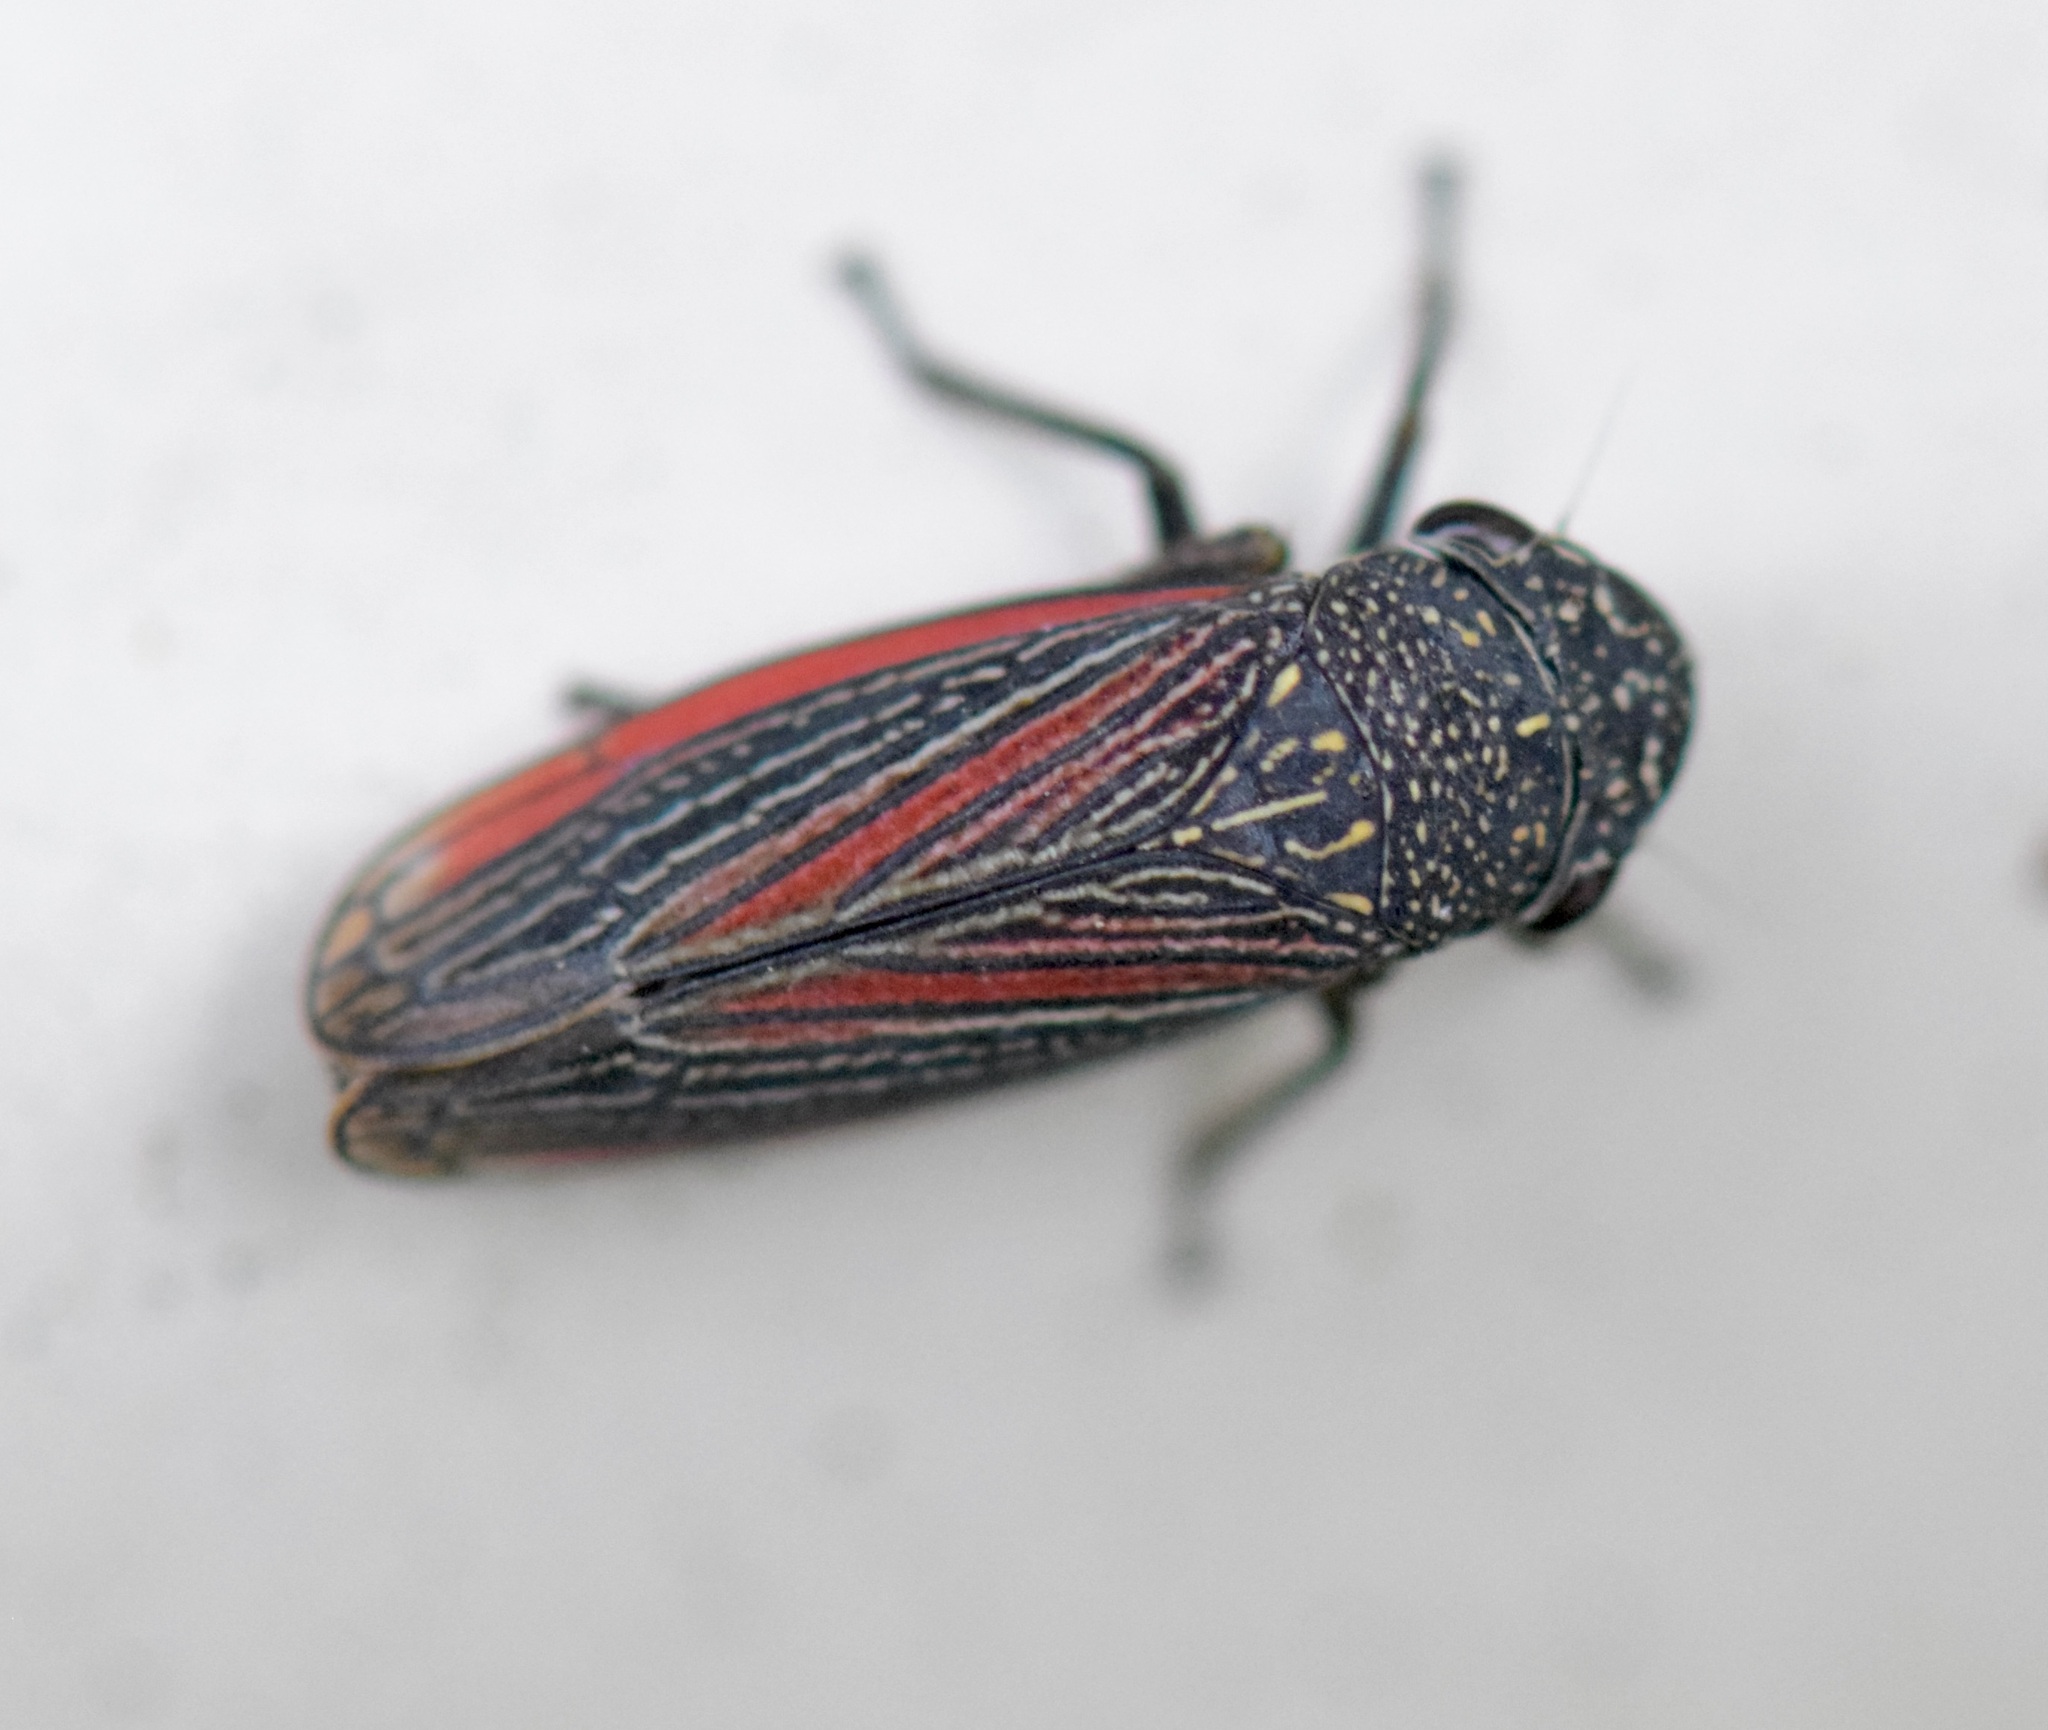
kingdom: Animalia
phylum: Arthropoda
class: Insecta
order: Hemiptera
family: Cicadellidae
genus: Cuerna
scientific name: Cuerna striata
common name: Striped leafhopper
